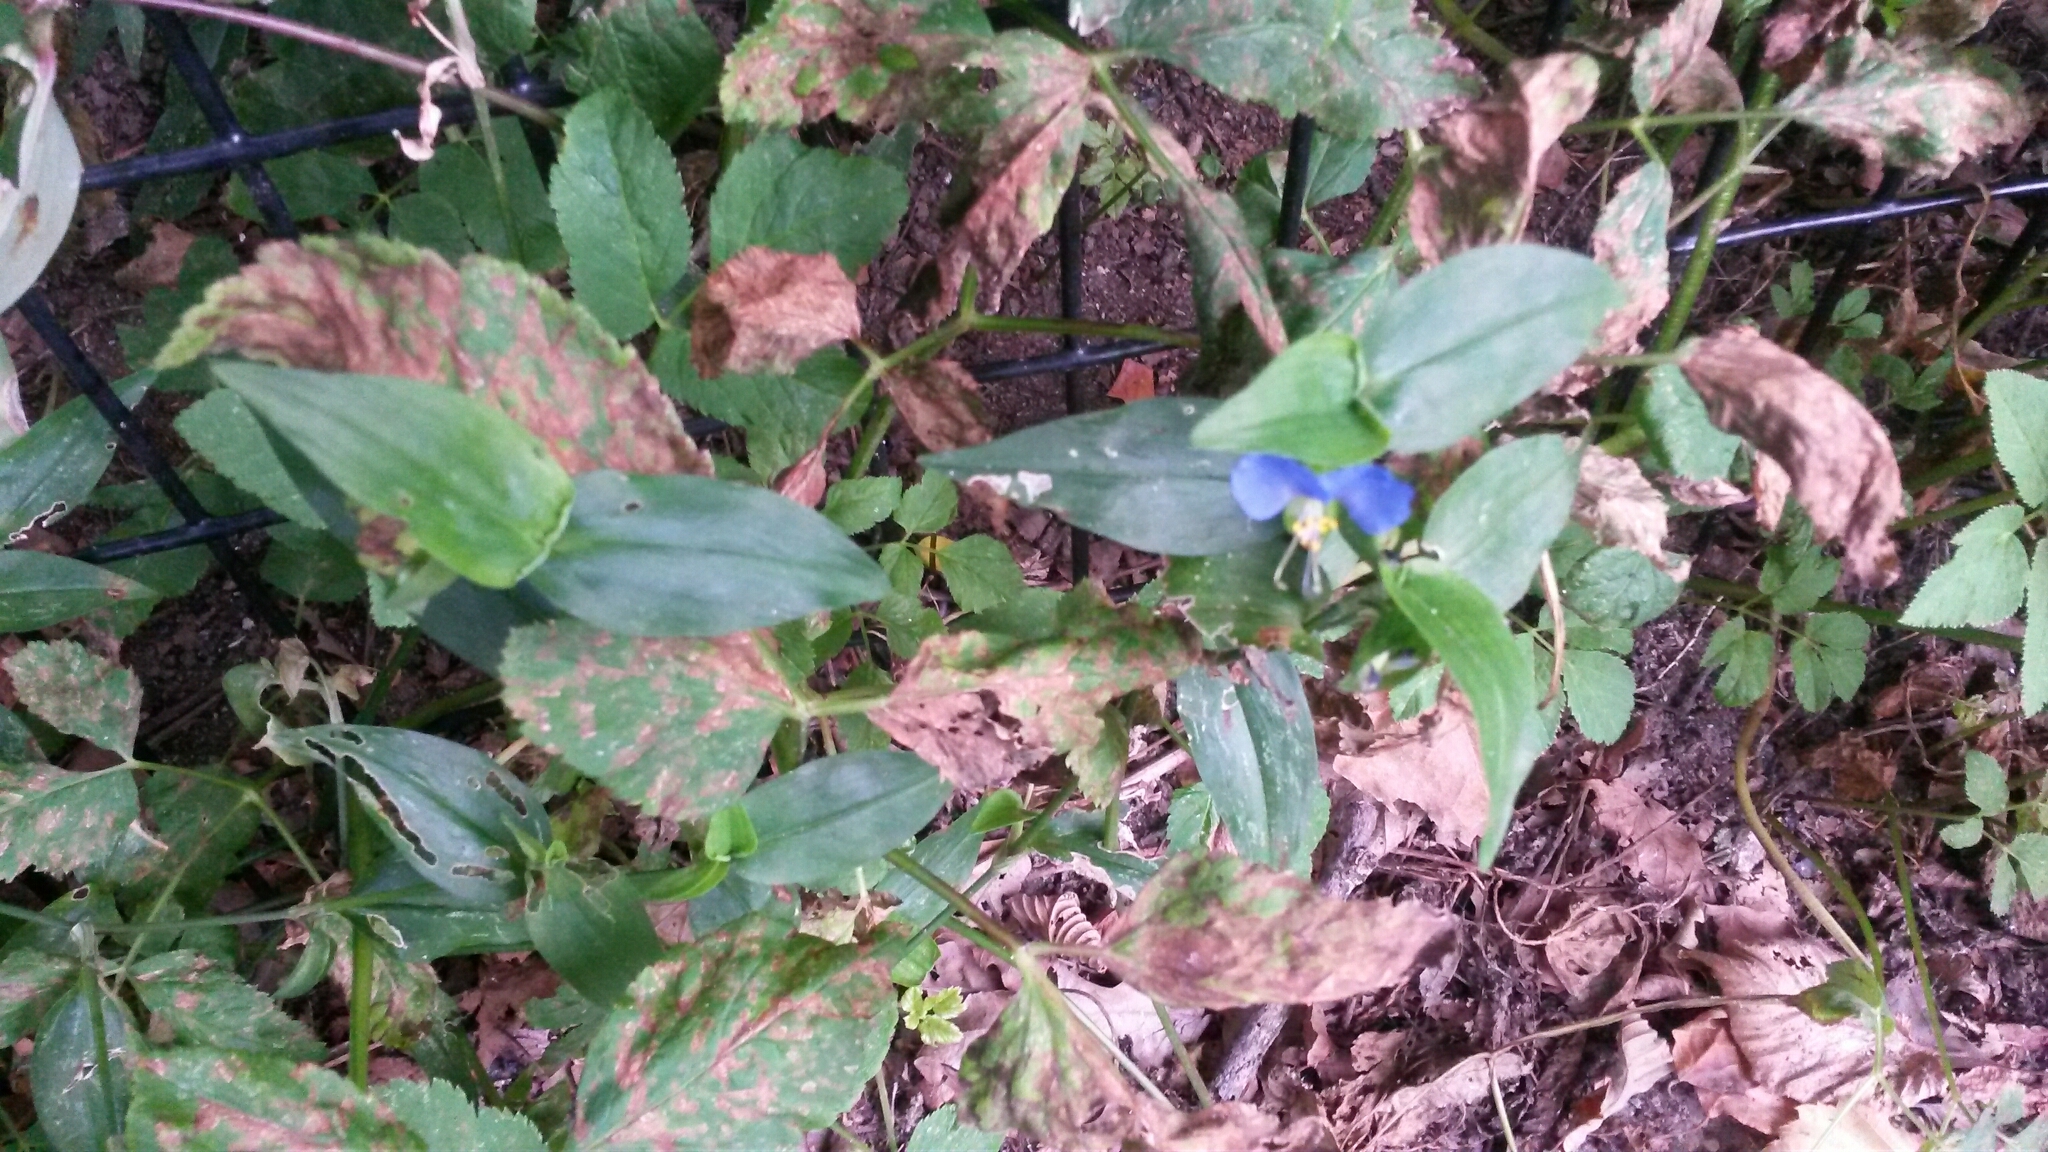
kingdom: Plantae
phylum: Tracheophyta
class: Liliopsida
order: Commelinales
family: Commelinaceae
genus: Commelina
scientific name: Commelina communis
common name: Asiatic dayflower
